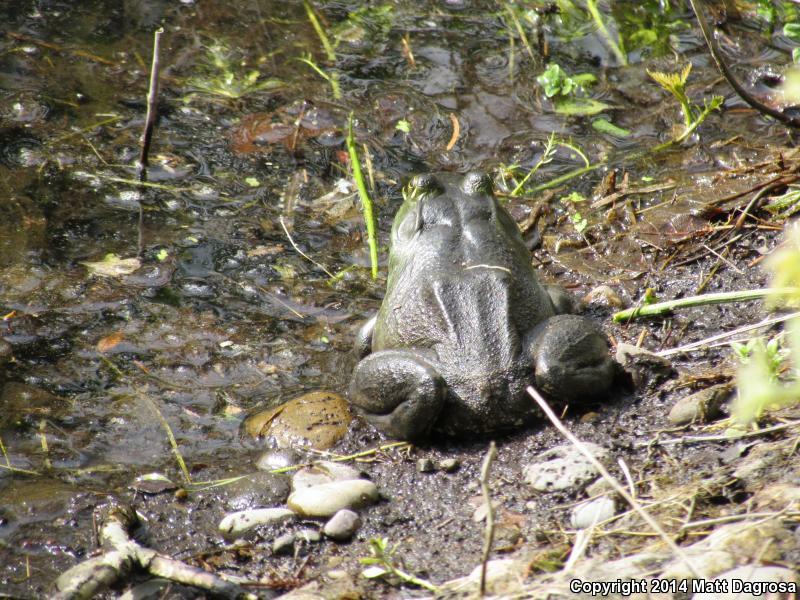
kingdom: Animalia
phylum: Chordata
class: Amphibia
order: Anura
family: Ranidae
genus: Lithobates
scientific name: Lithobates catesbeianus
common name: American bullfrog
